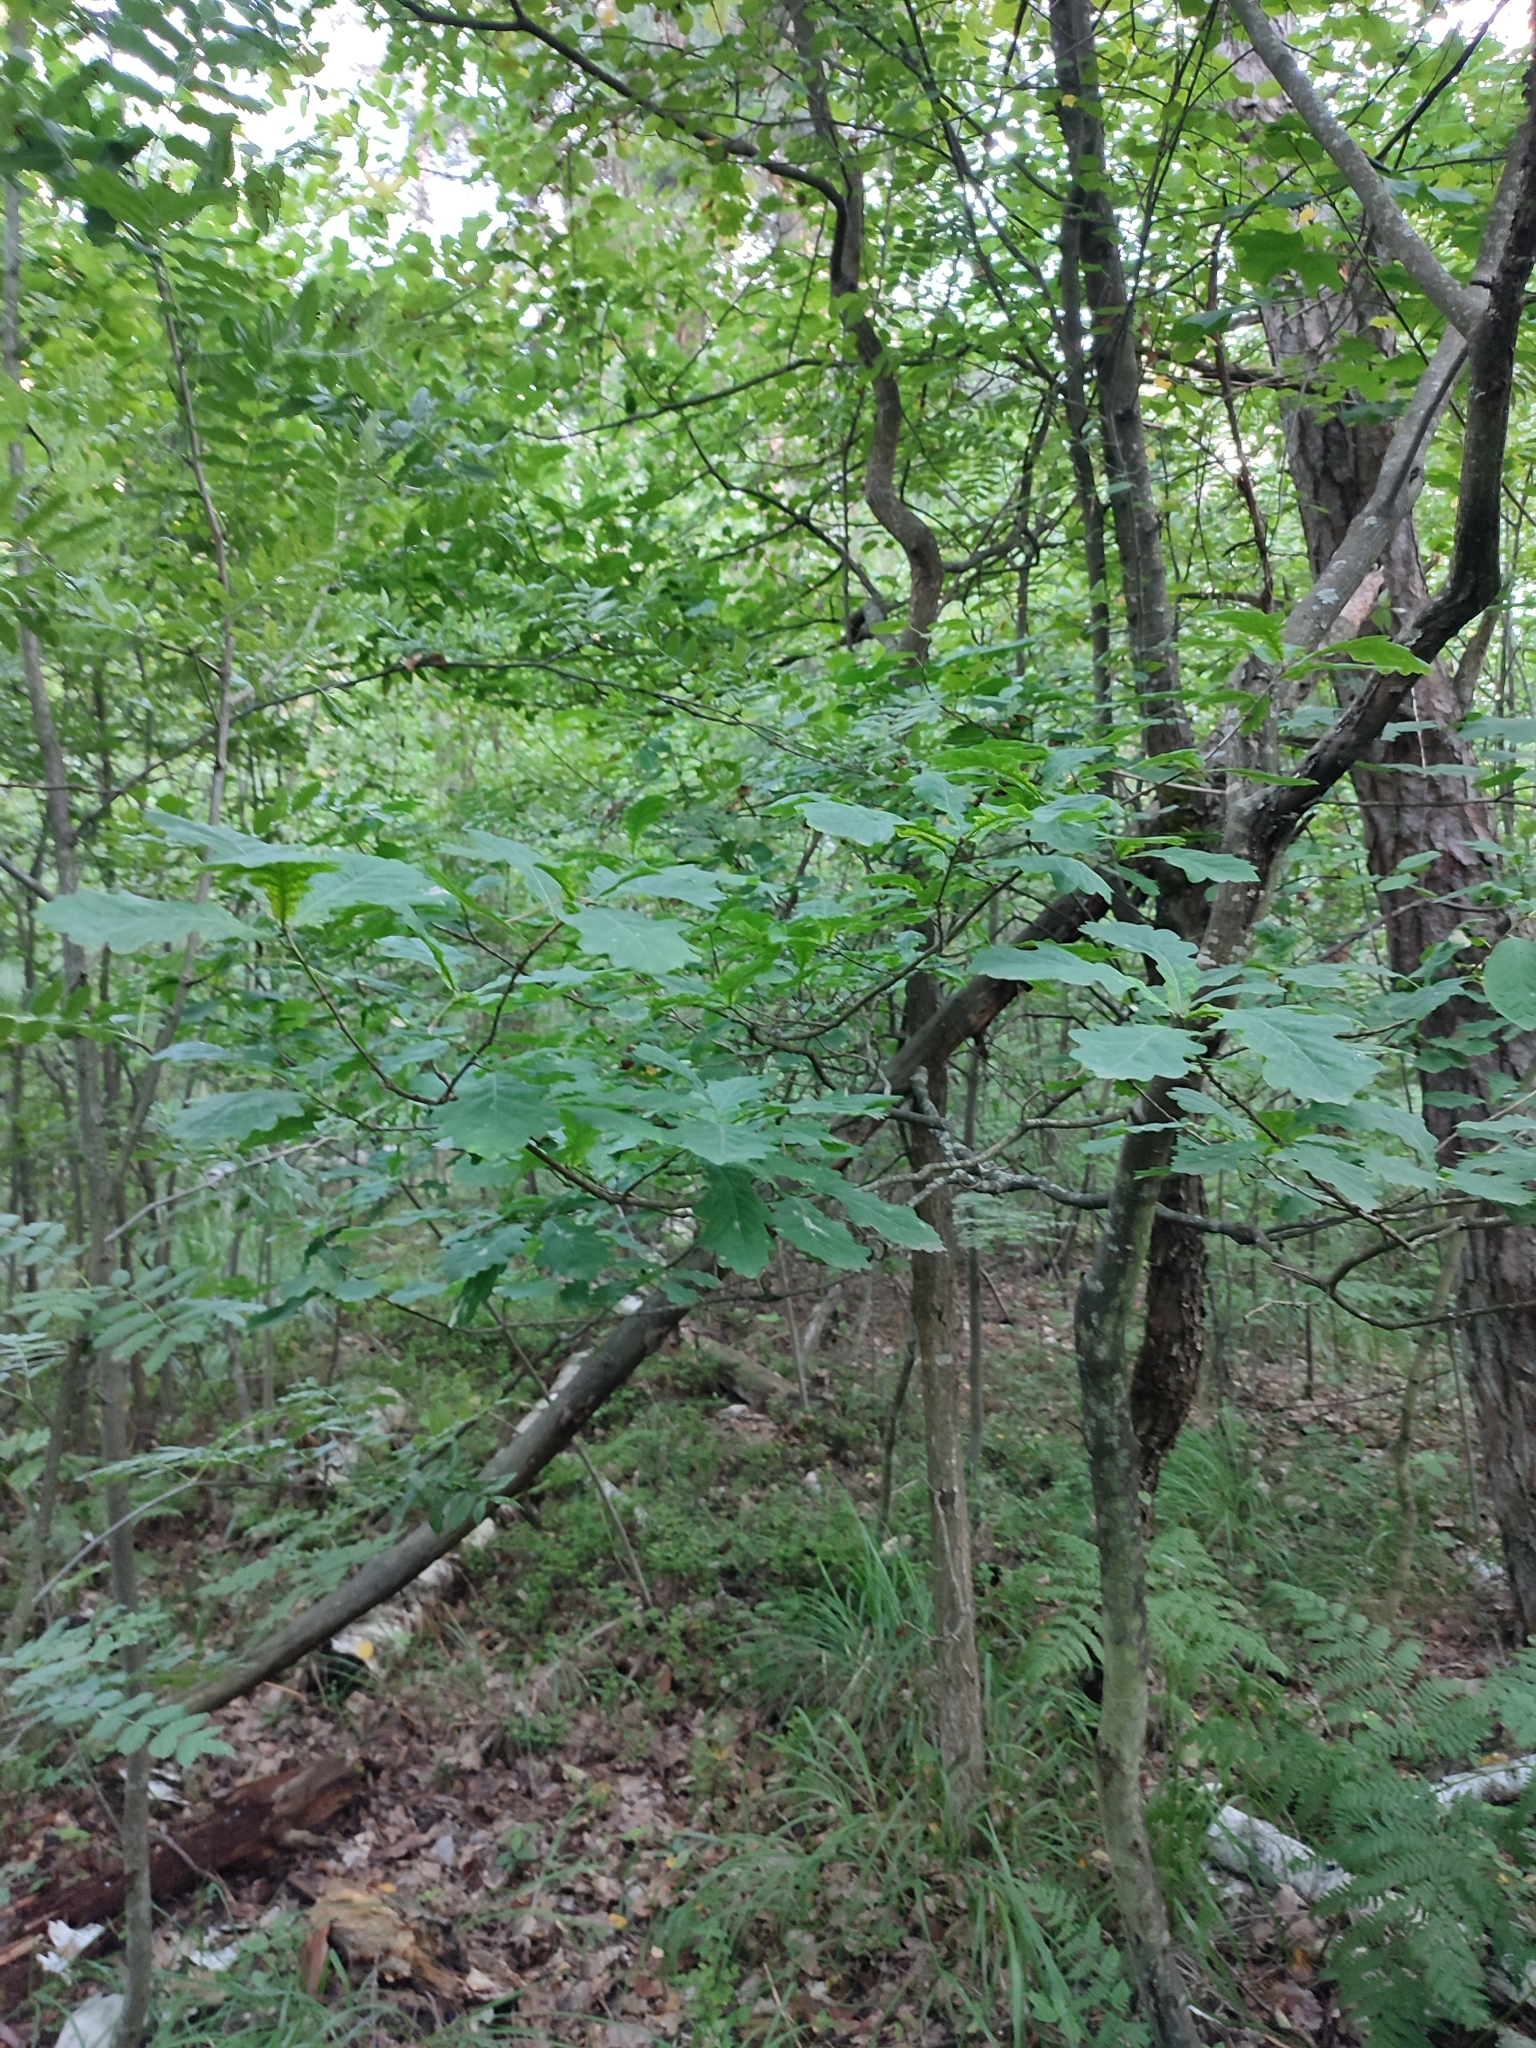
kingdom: Plantae
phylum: Tracheophyta
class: Magnoliopsida
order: Fagales
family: Fagaceae
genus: Quercus
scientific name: Quercus robur
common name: Pedunculate oak
